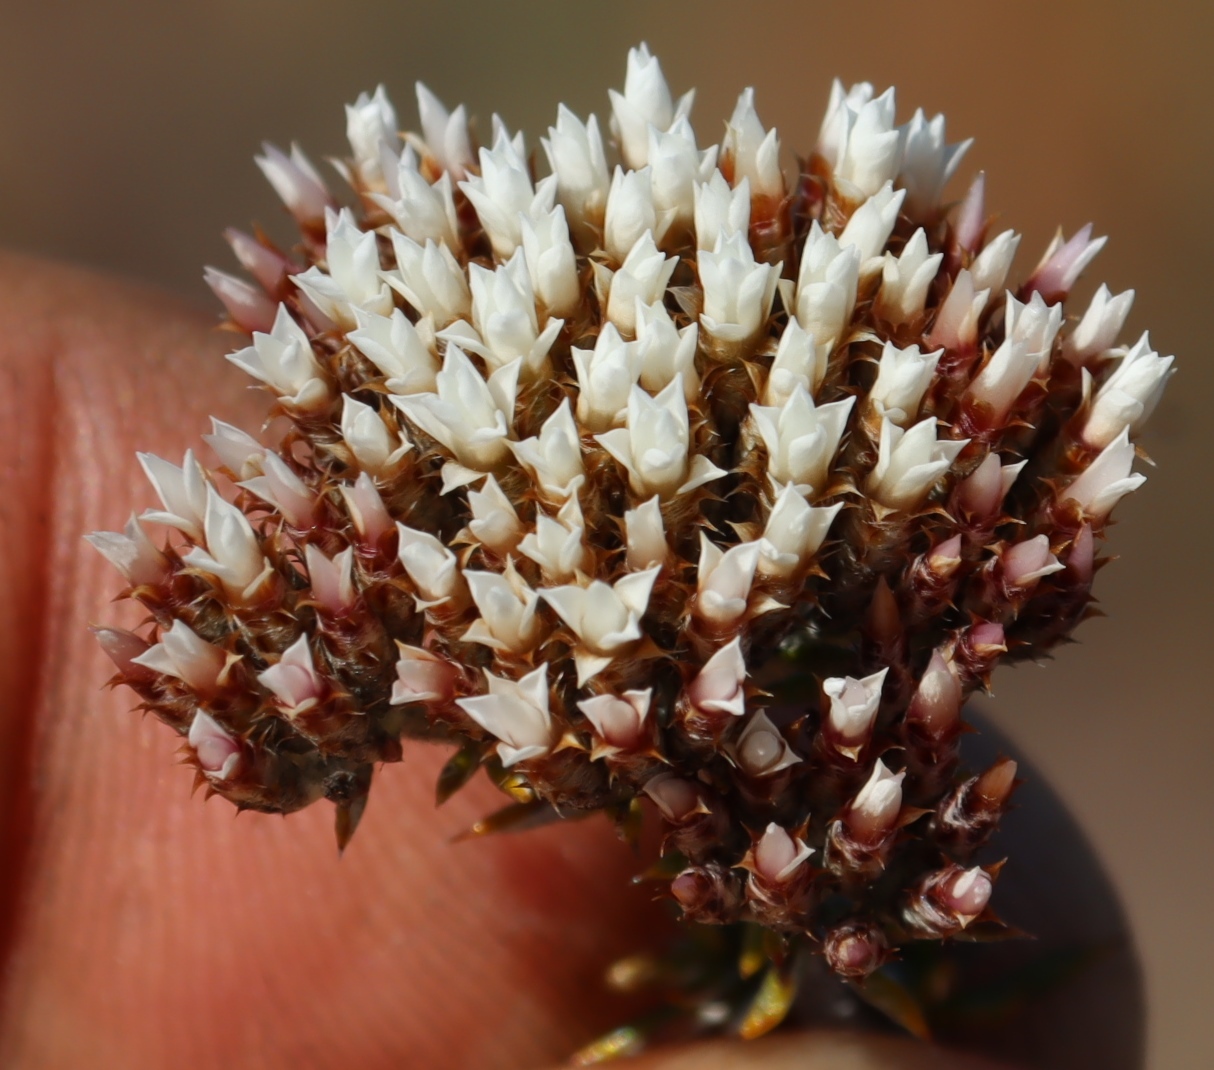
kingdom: Plantae
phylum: Tracheophyta
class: Magnoliopsida
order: Asterales
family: Asteraceae
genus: Metalasia
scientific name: Metalasia massonii
